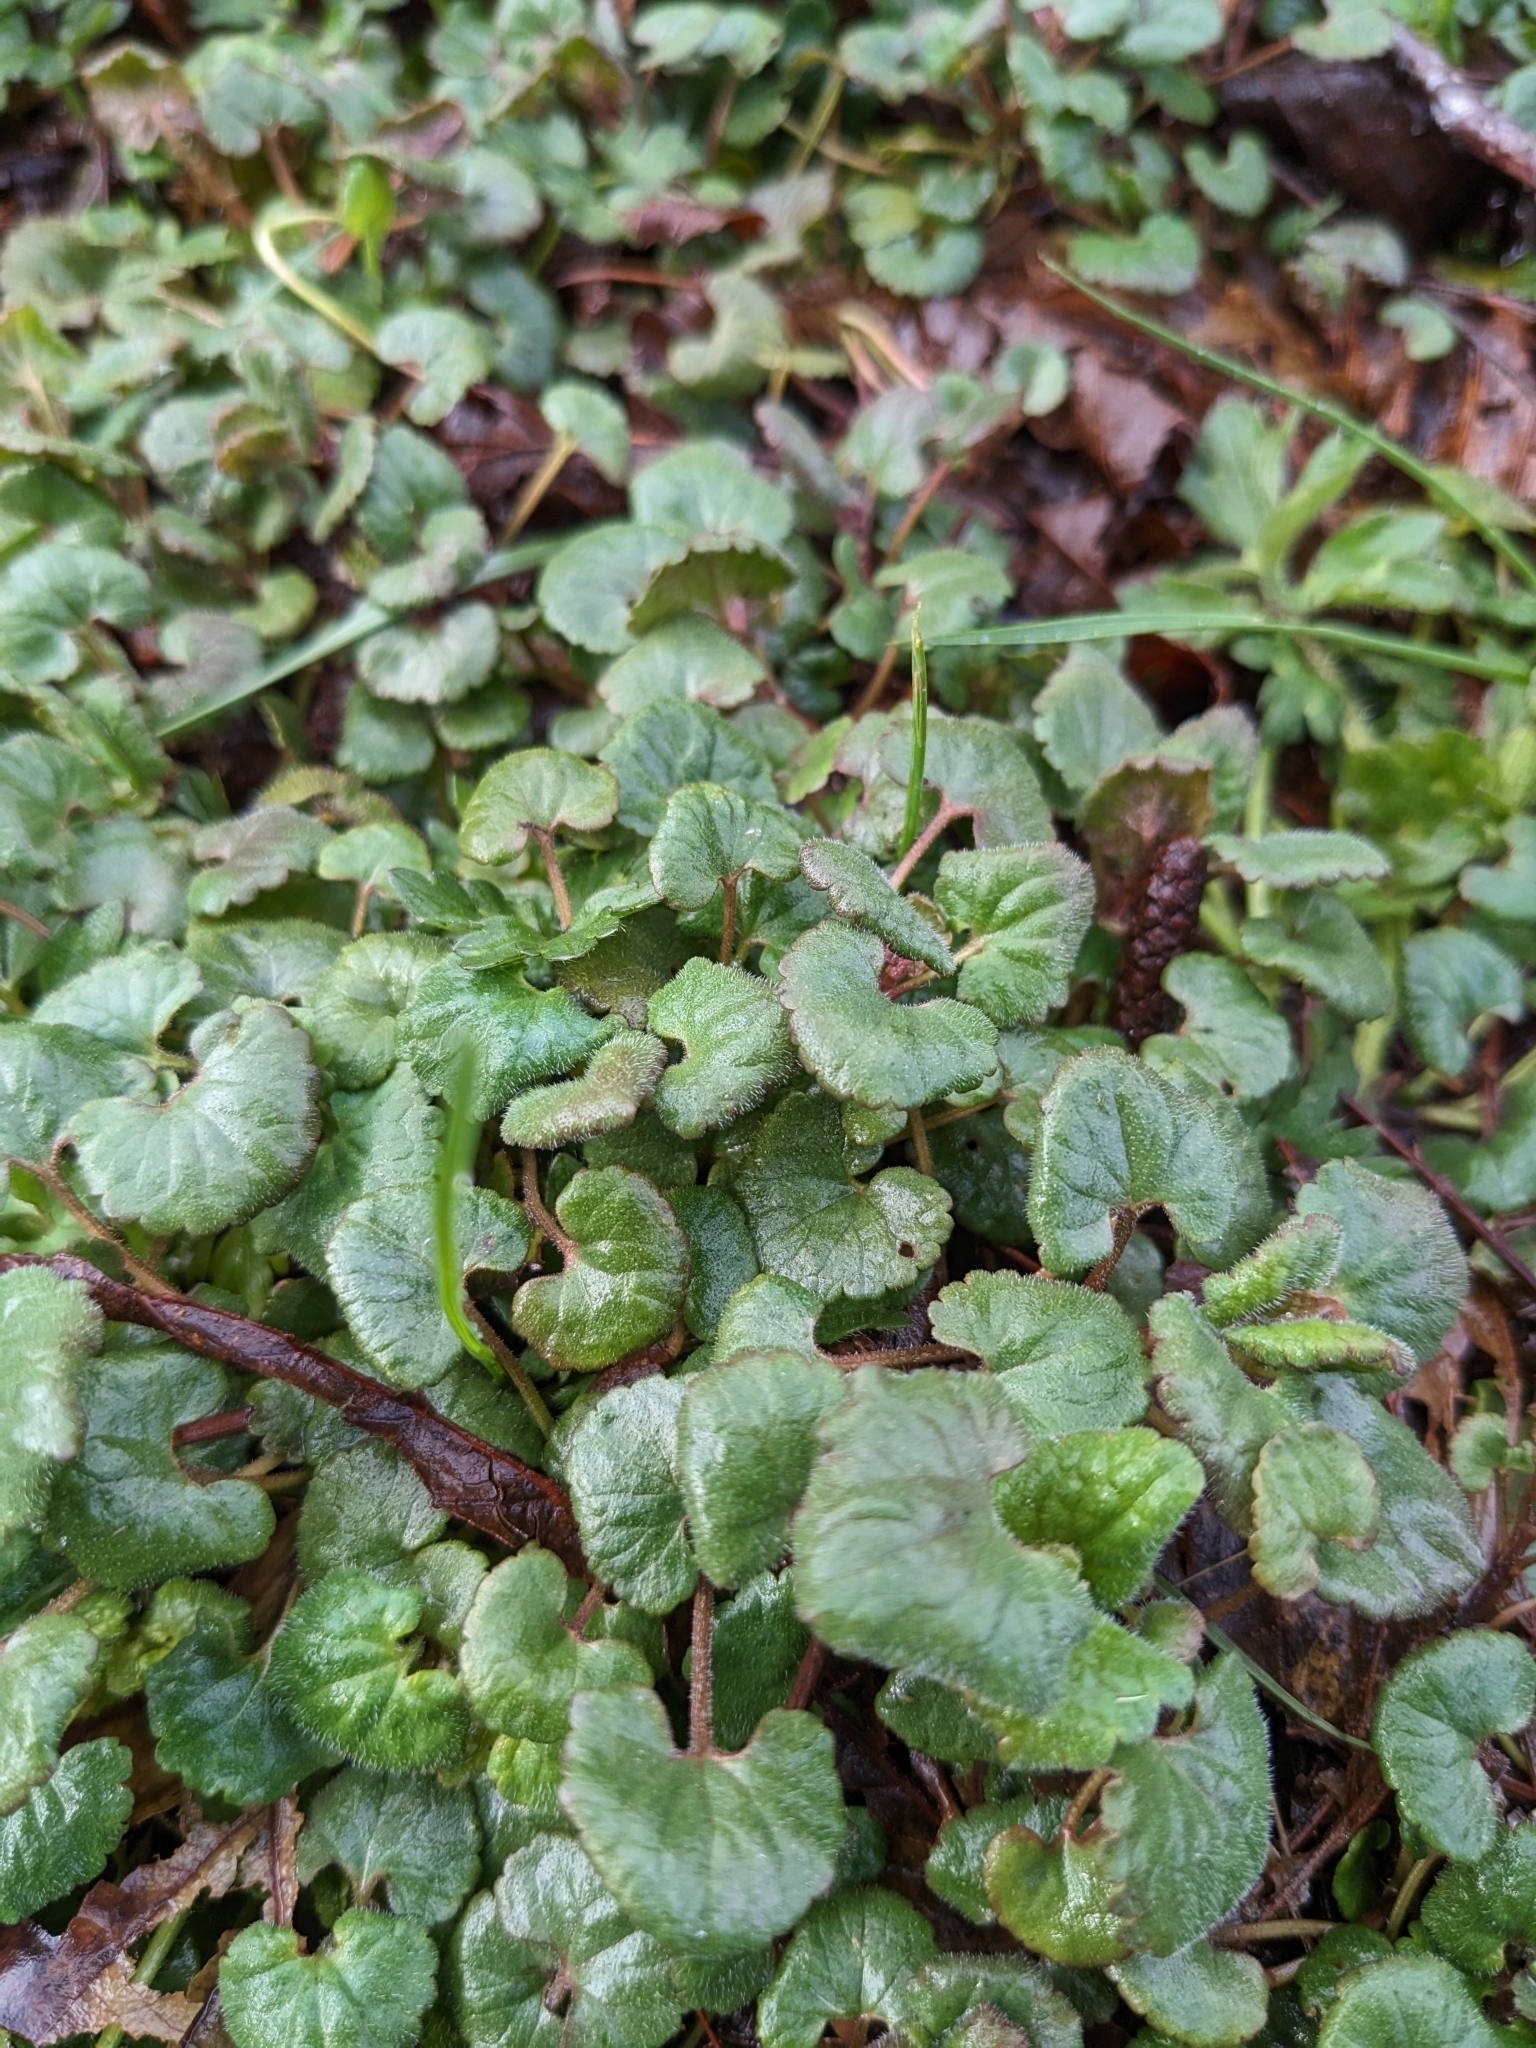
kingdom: Plantae
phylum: Tracheophyta
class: Magnoliopsida
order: Lamiales
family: Lamiaceae
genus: Glechoma
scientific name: Glechoma hederacea
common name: Ground ivy
